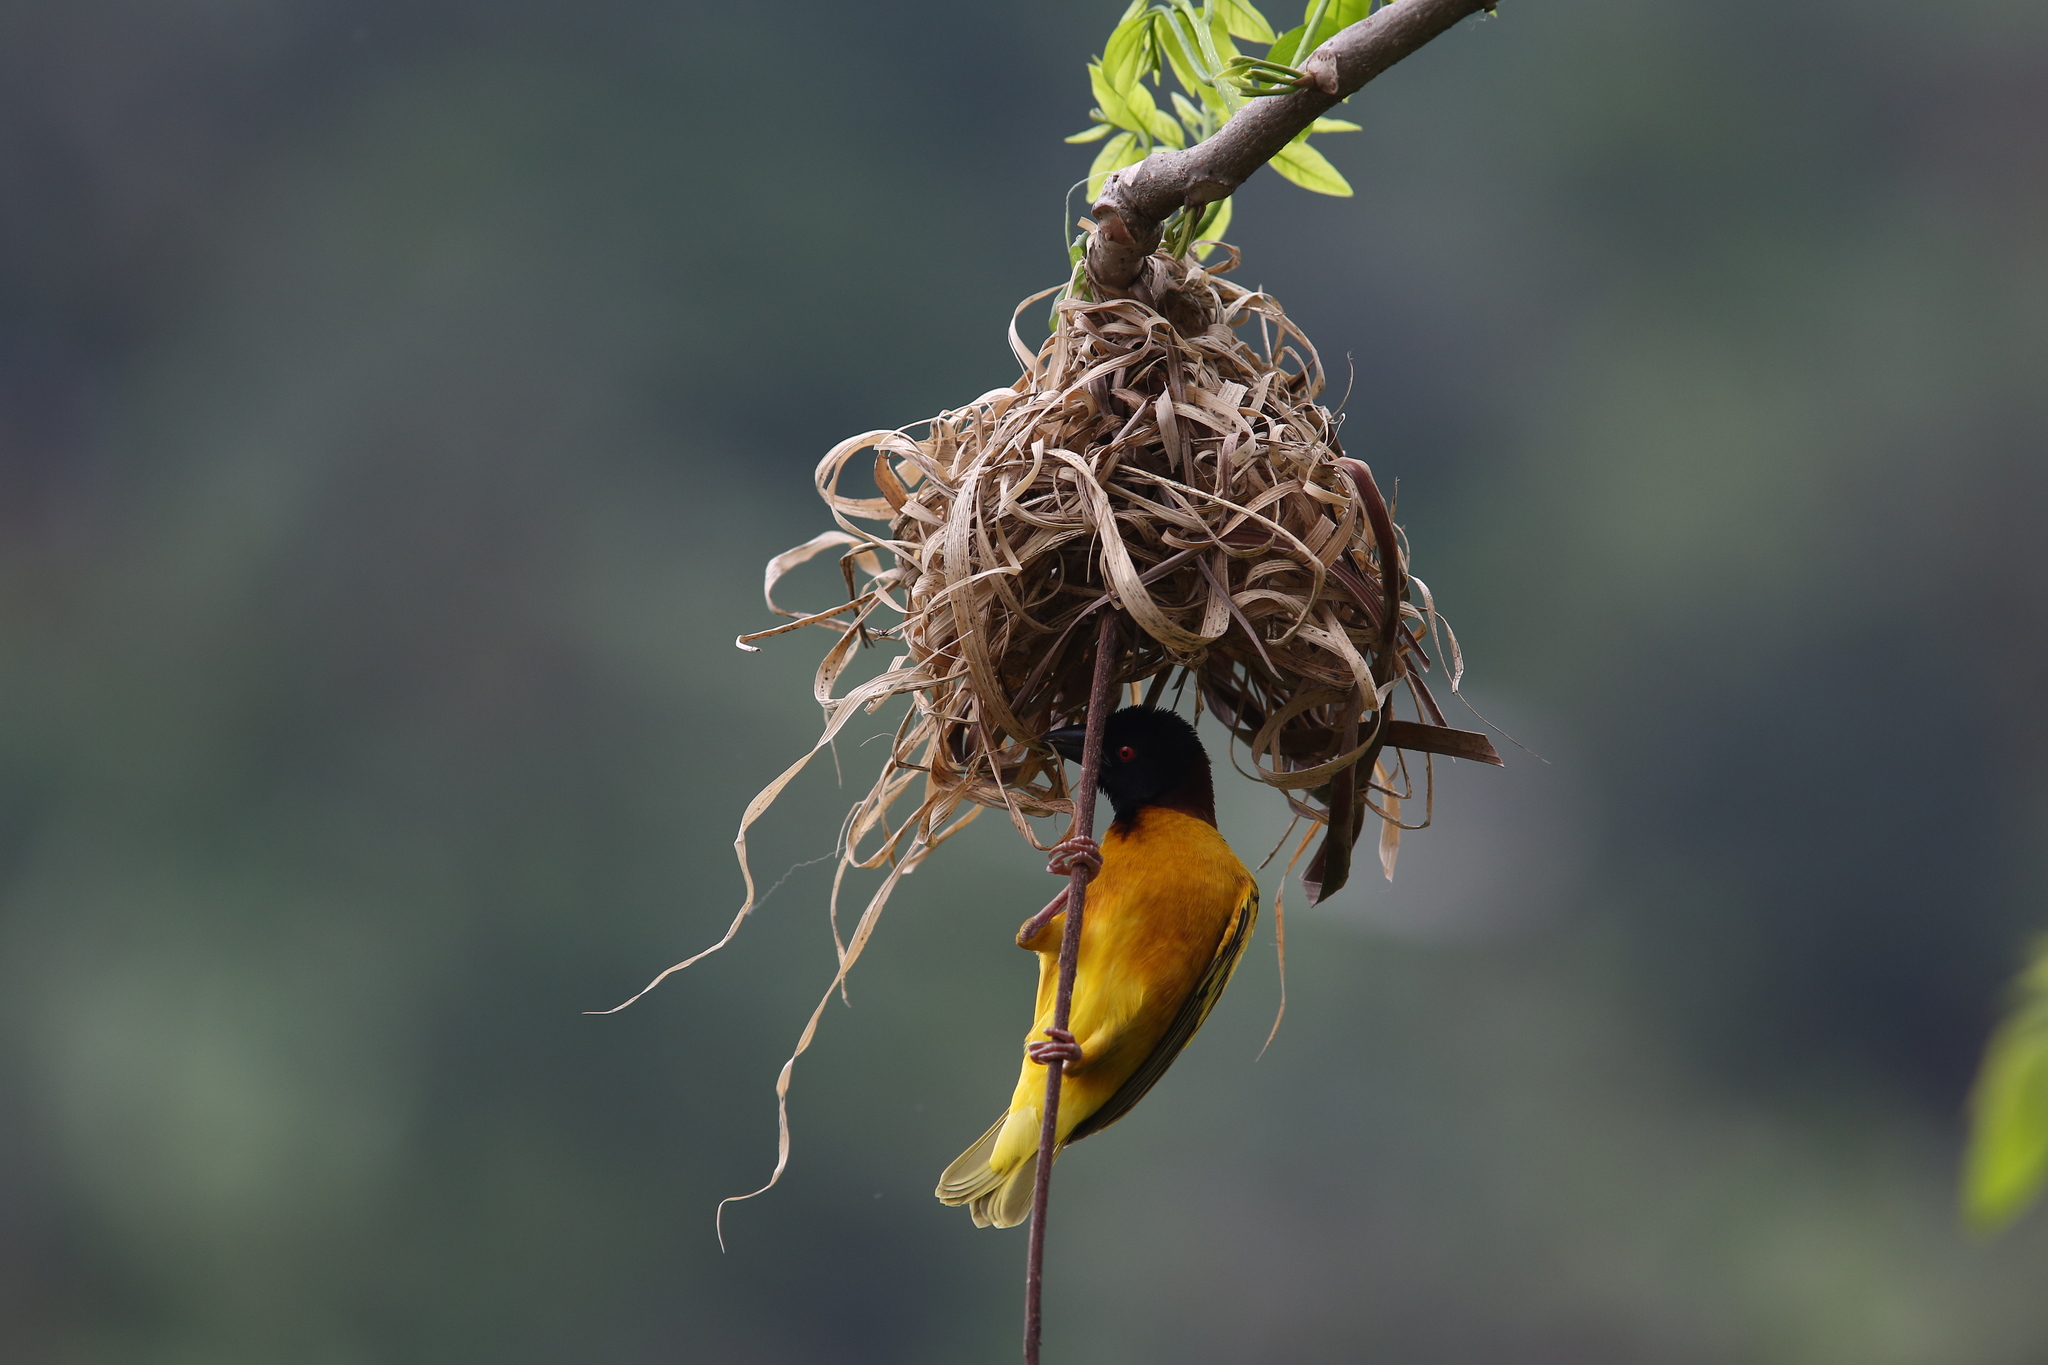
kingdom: Animalia
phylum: Chordata
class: Aves
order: Passeriformes
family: Ploceidae
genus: Ploceus
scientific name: Ploceus cucullatus
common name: Village weaver
